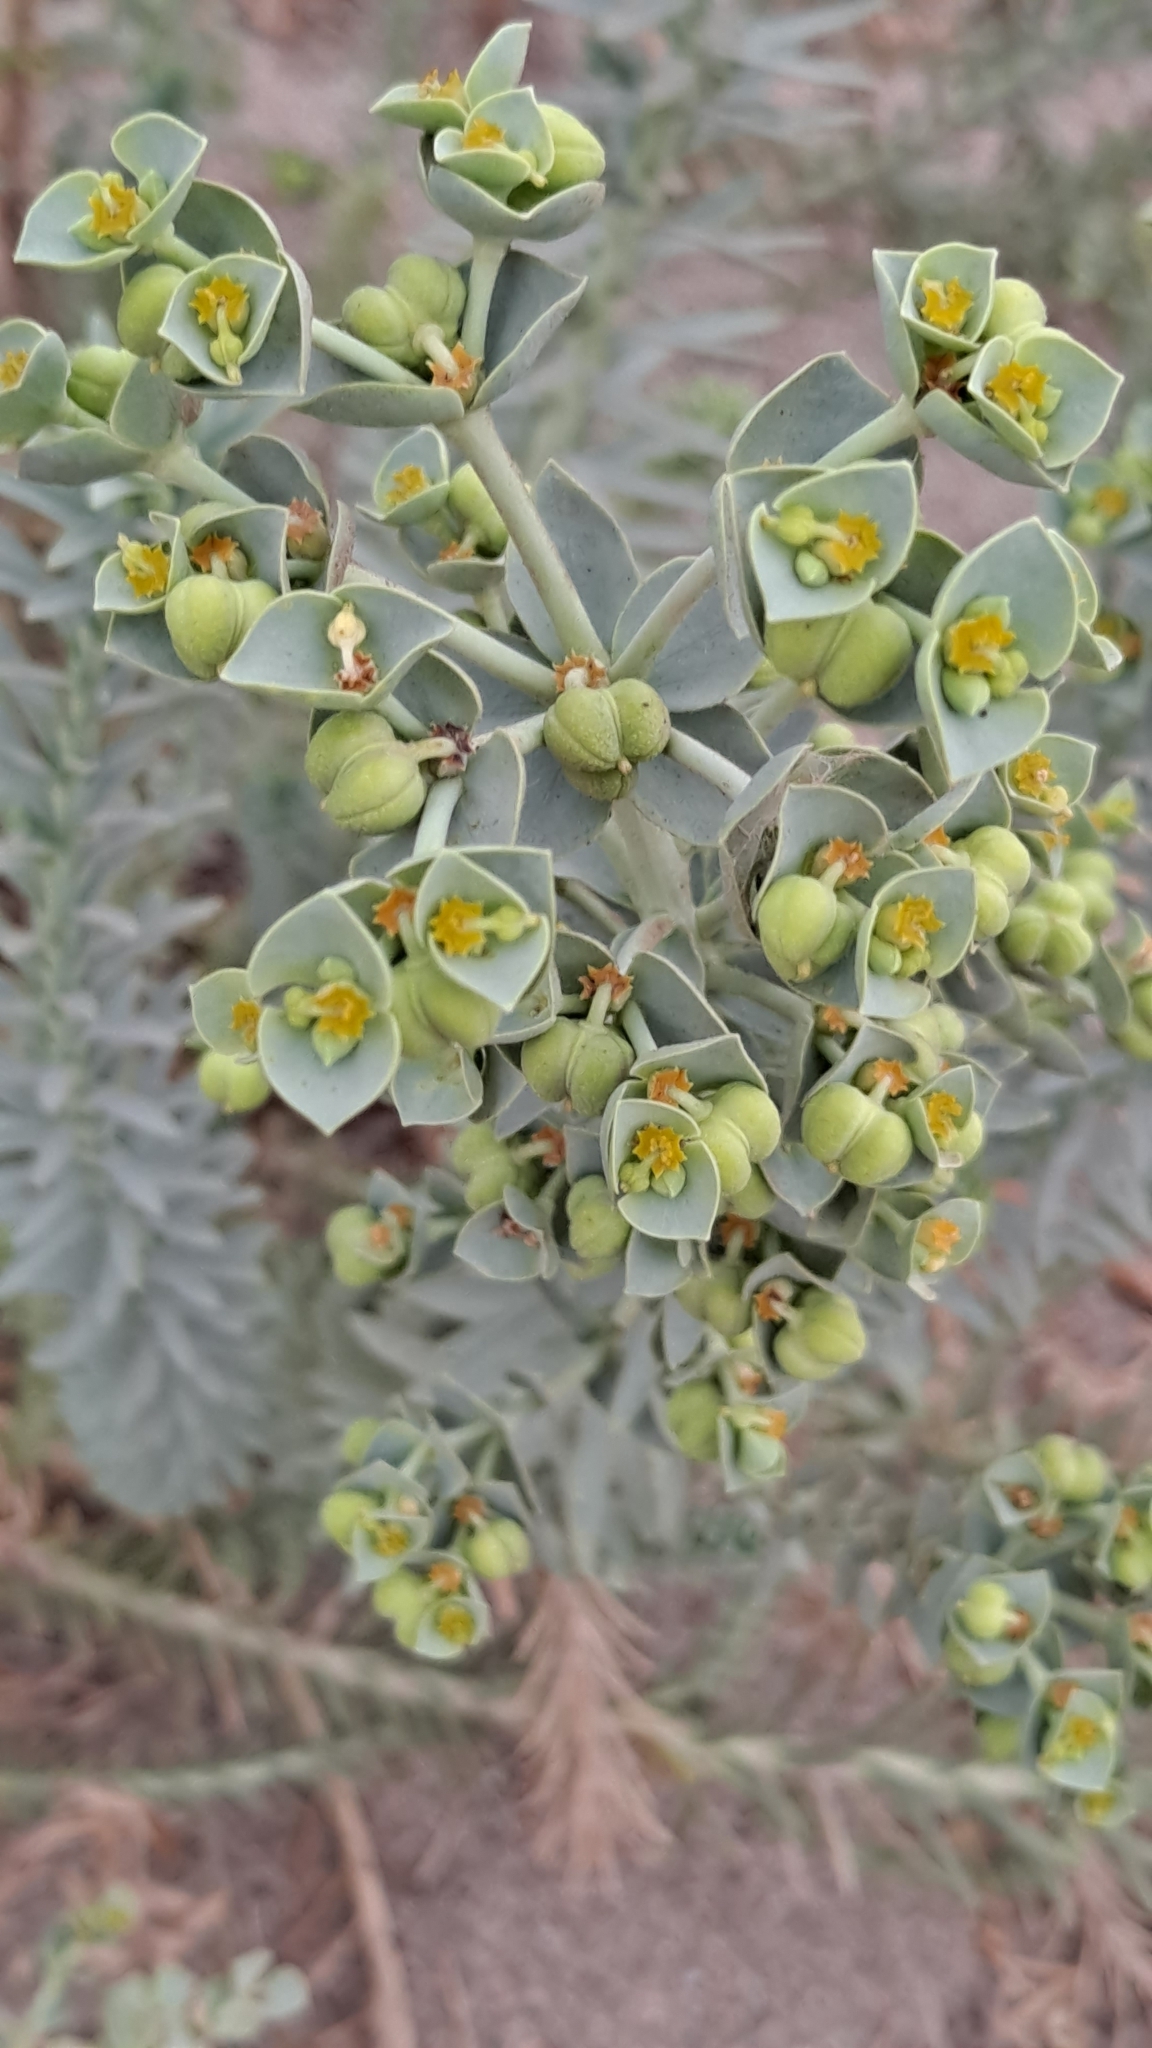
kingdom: Plantae
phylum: Tracheophyta
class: Magnoliopsida
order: Malpighiales
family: Euphorbiaceae
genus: Euphorbia
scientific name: Euphorbia paralias
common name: Sea spurge
